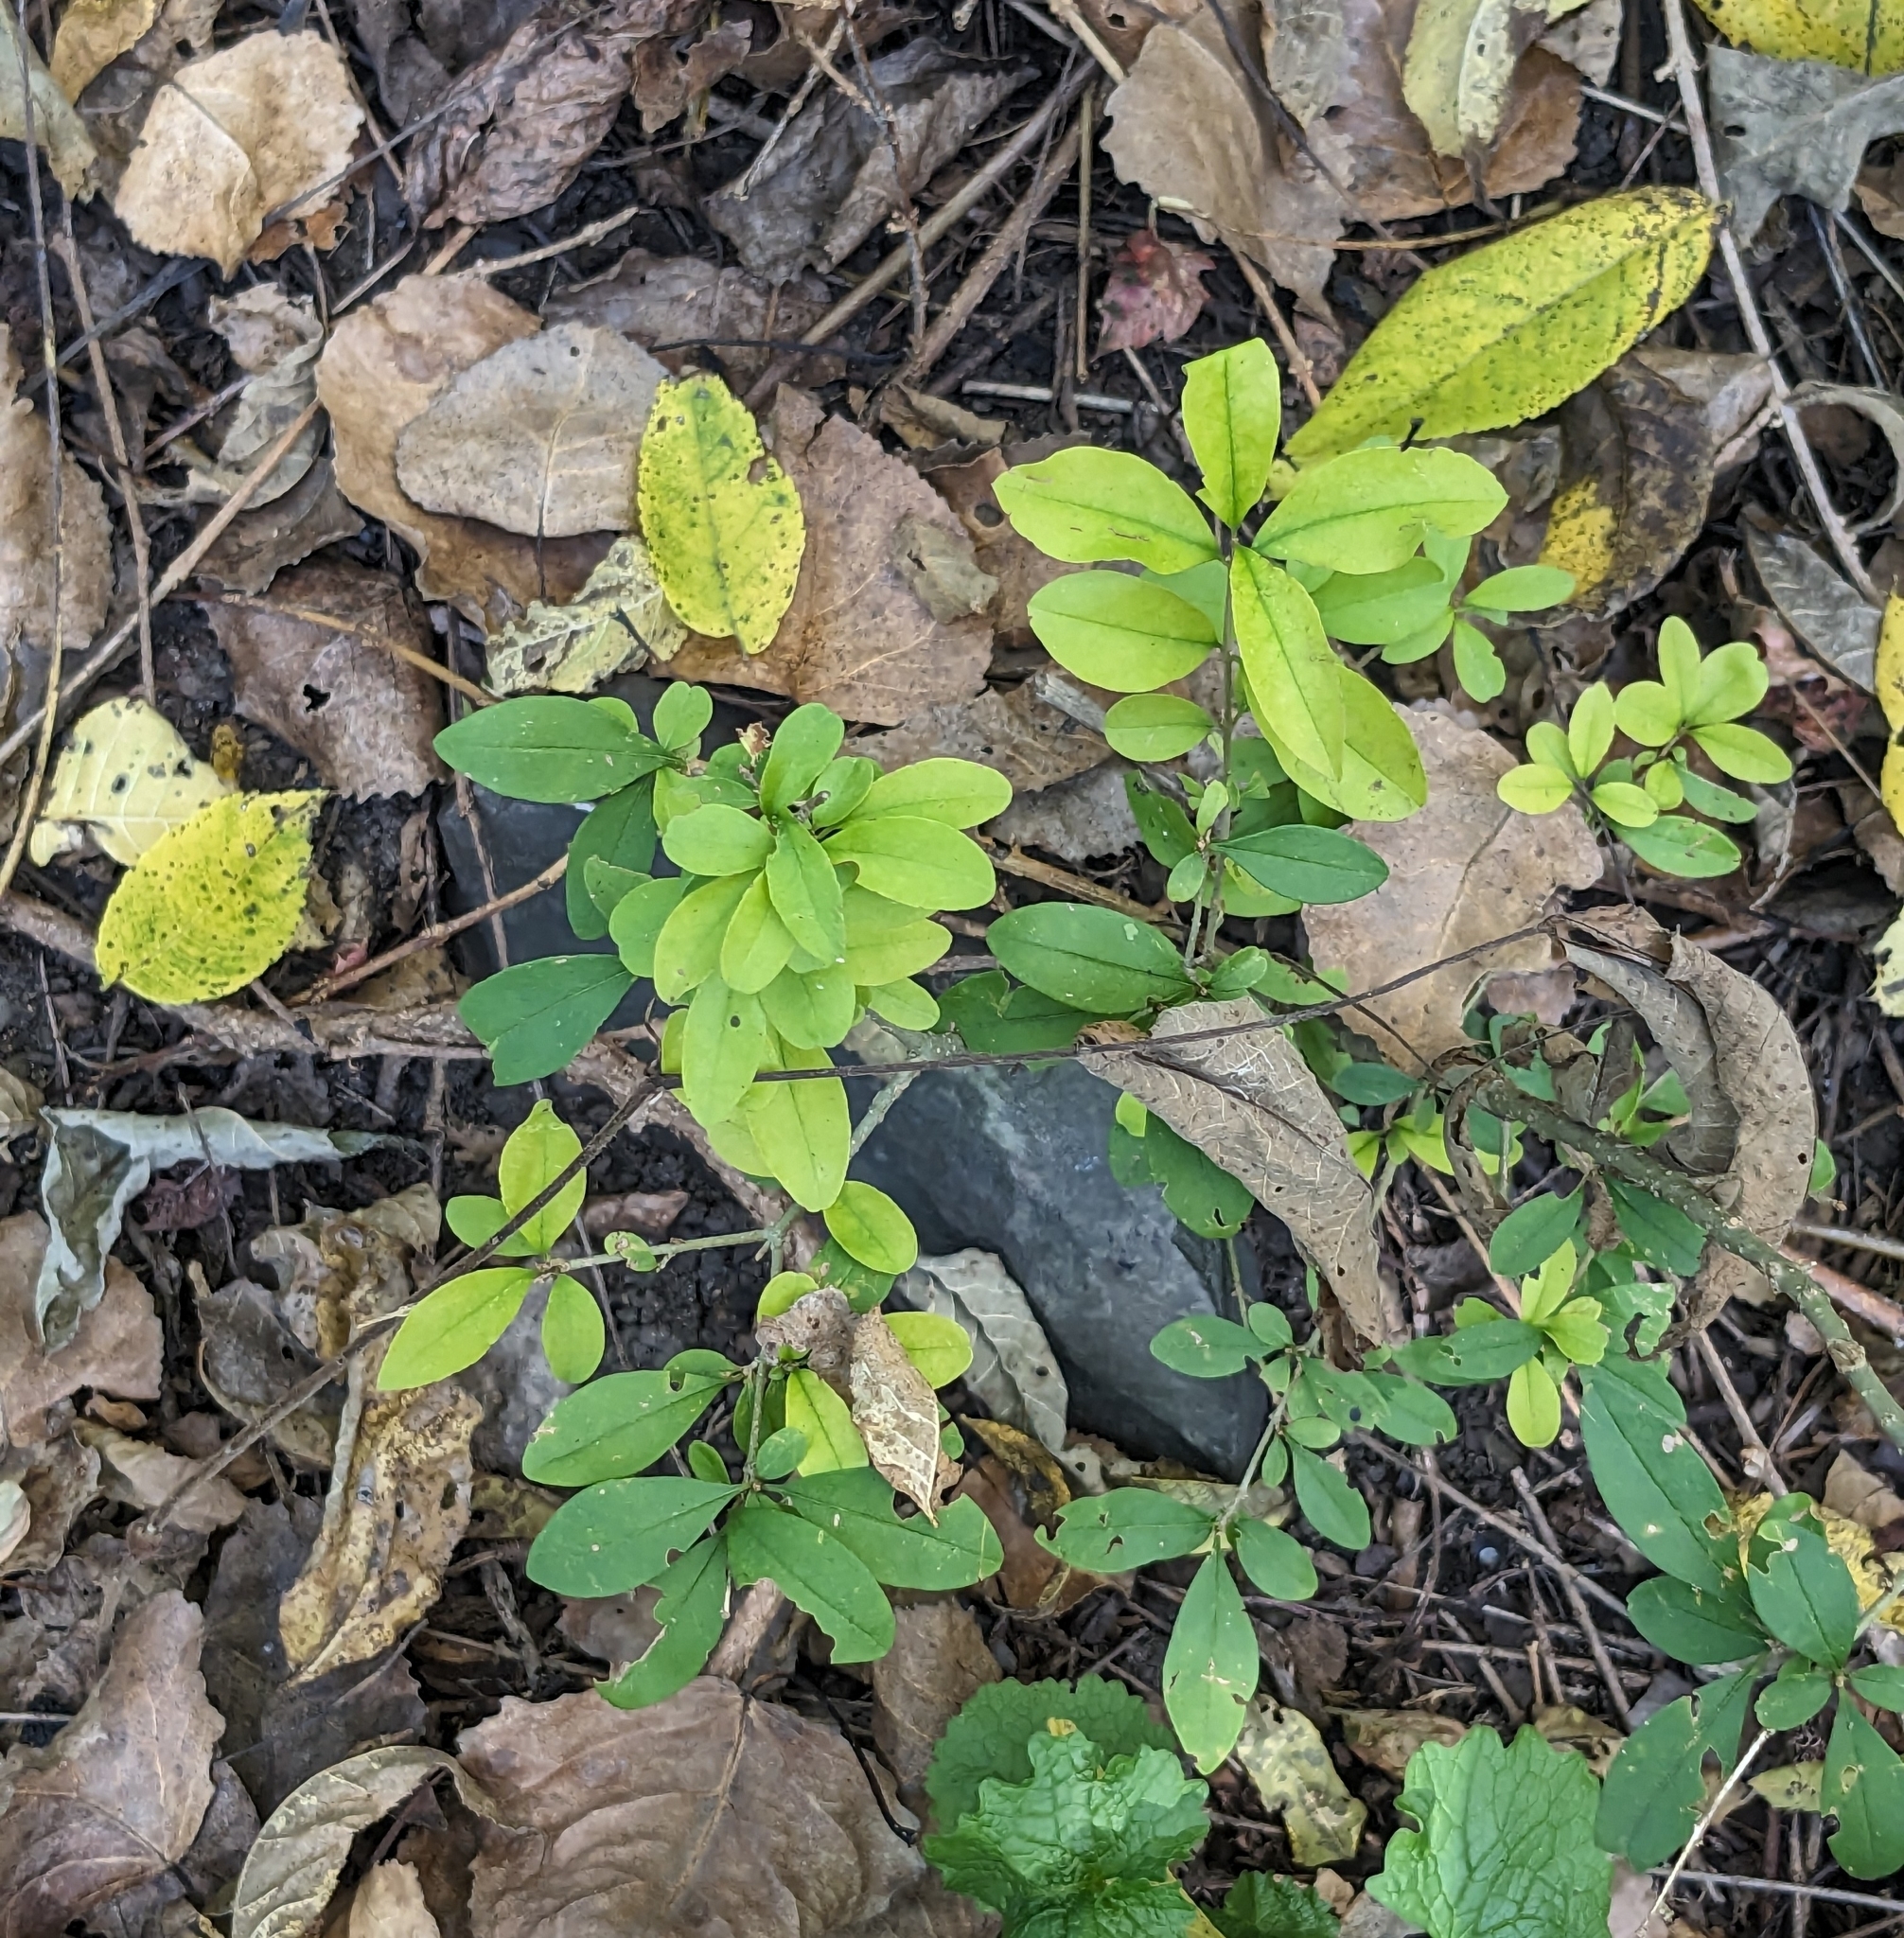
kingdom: Plantae
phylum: Tracheophyta
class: Magnoliopsida
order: Lamiales
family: Oleaceae
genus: Ligustrum
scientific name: Ligustrum obtusifolium
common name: Border privet
